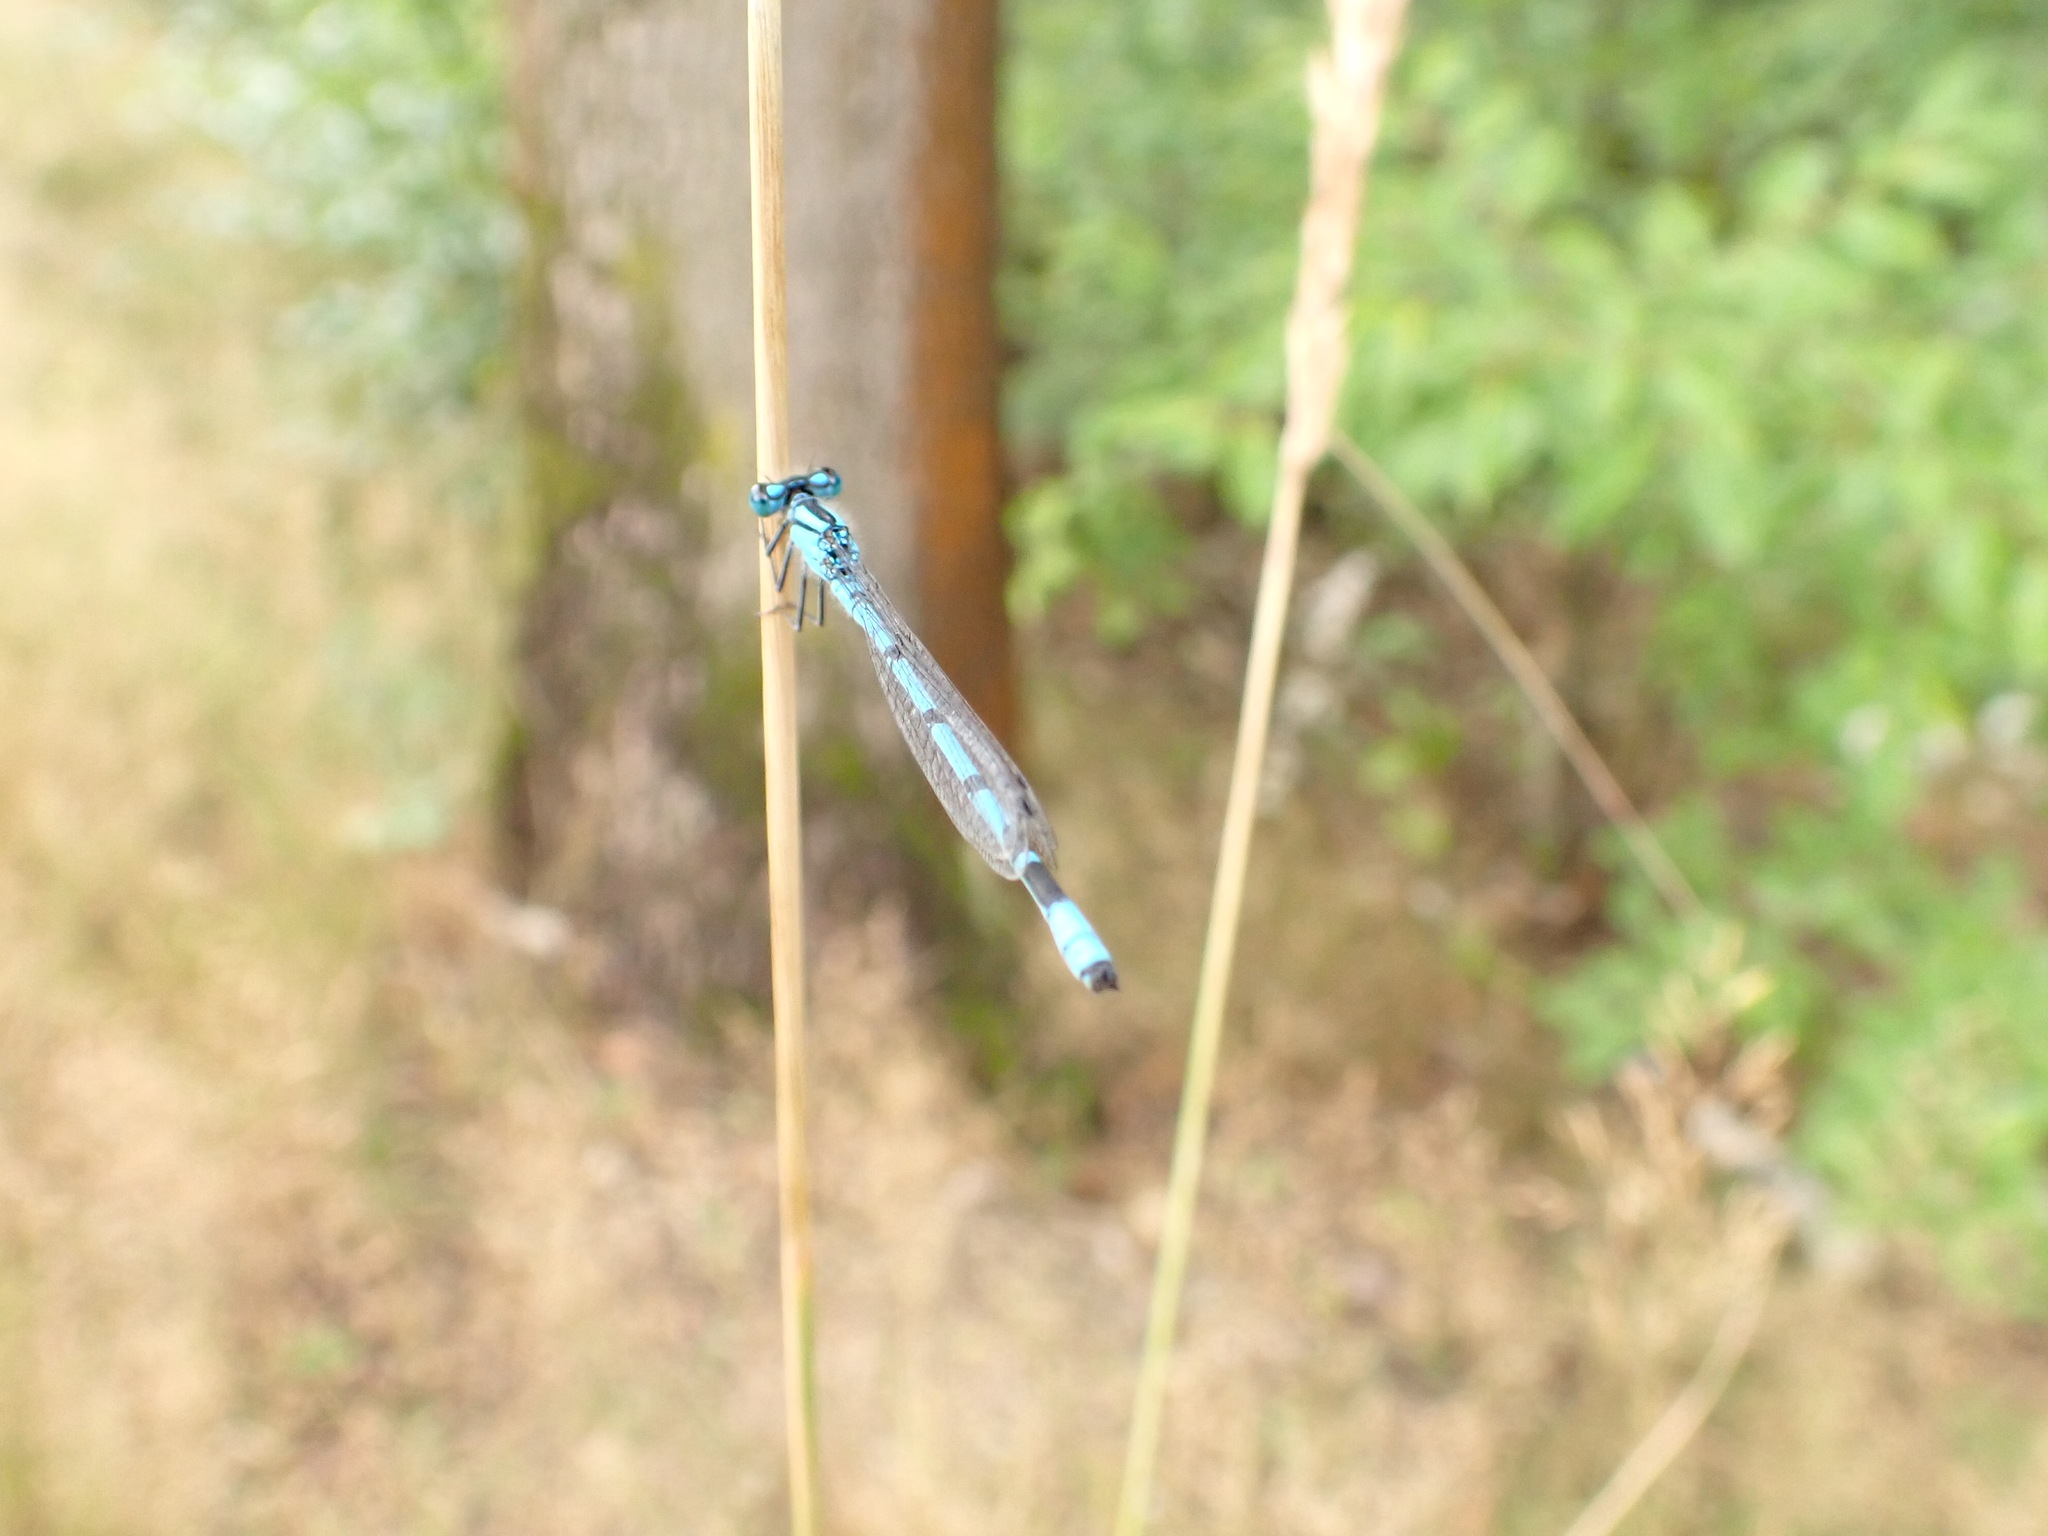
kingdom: Animalia
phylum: Arthropoda
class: Insecta
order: Odonata
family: Coenagrionidae
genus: Enallagma
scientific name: Enallagma cyathigerum
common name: Common blue damselfly
